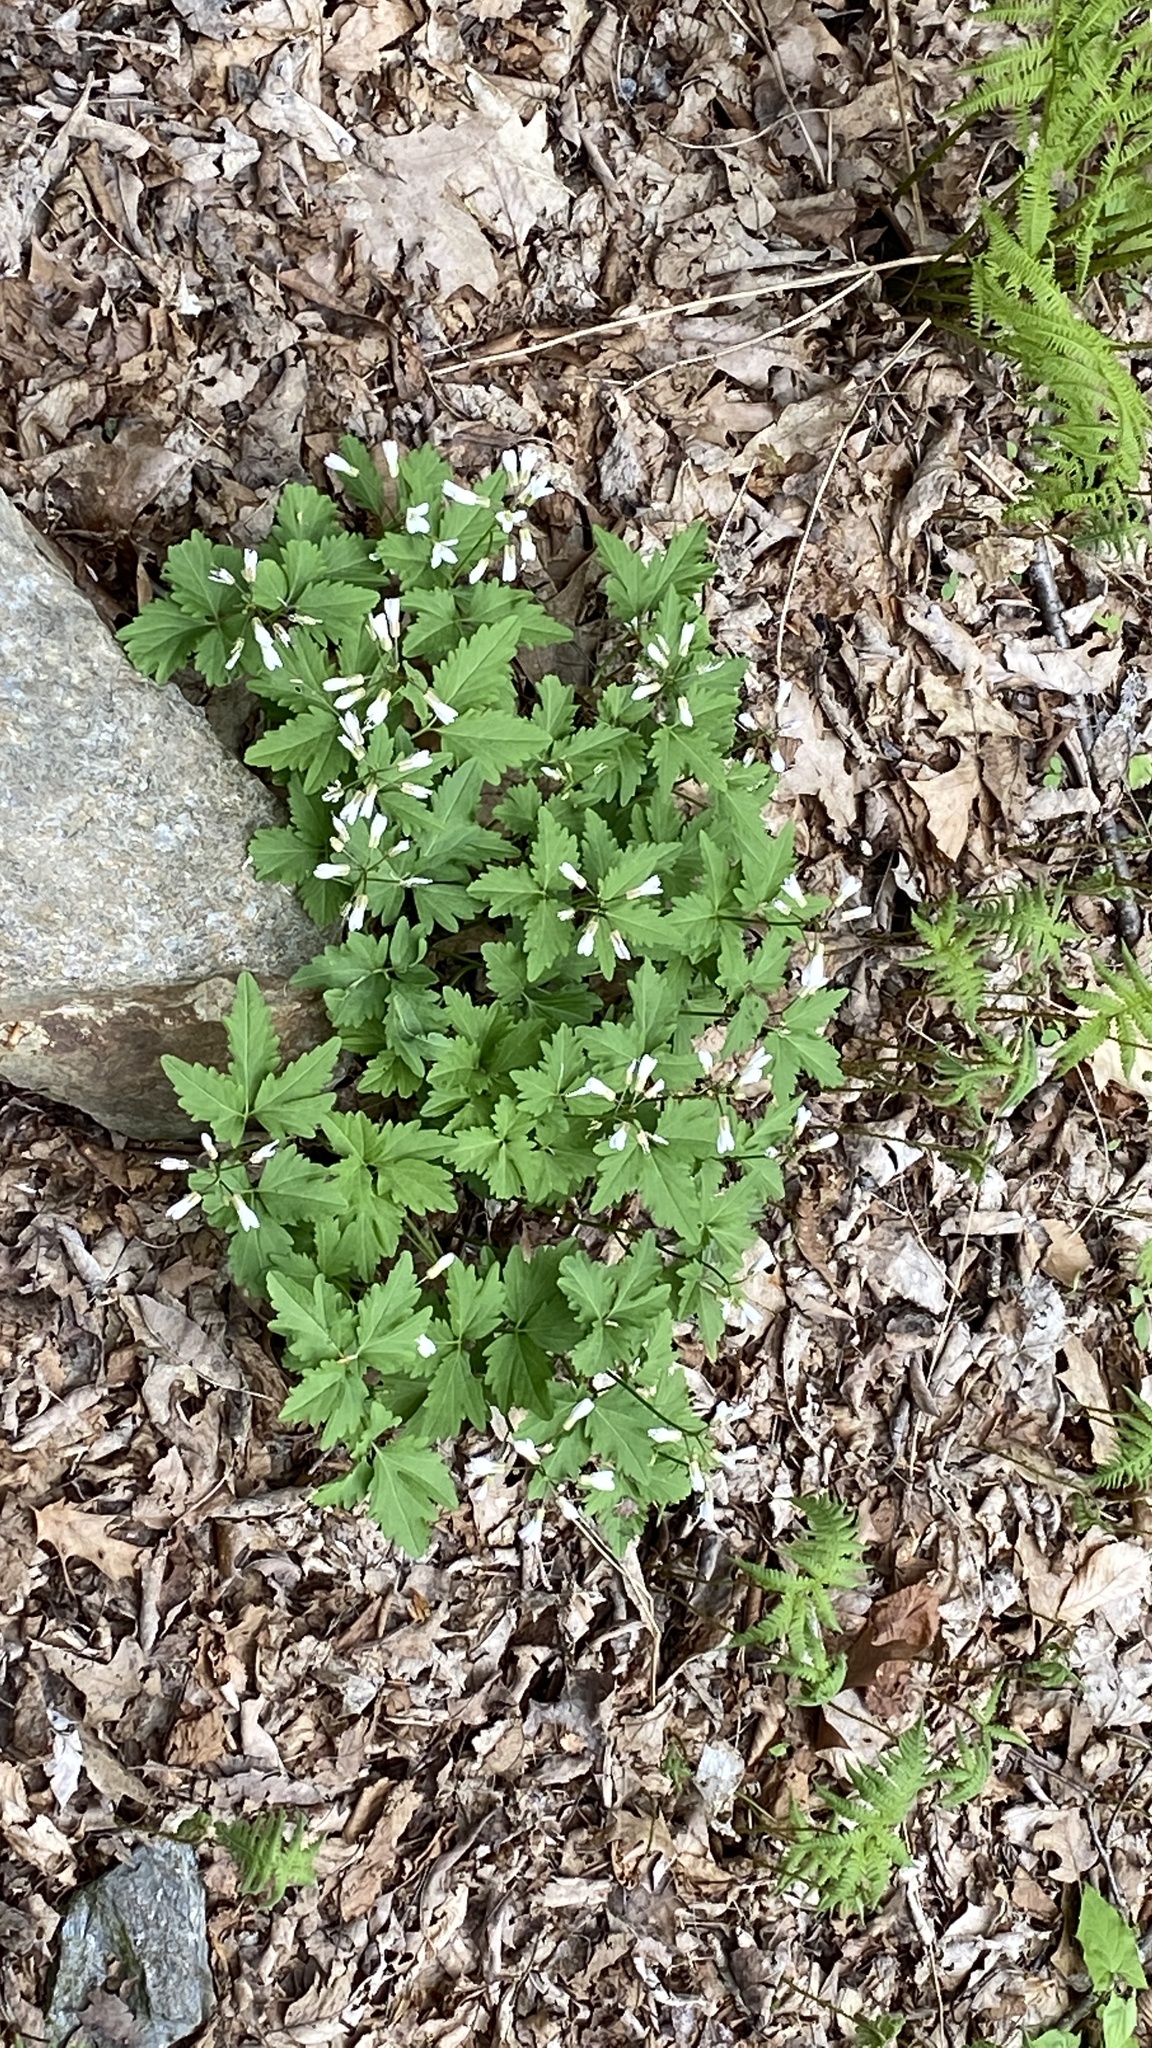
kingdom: Plantae
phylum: Tracheophyta
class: Magnoliopsida
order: Brassicales
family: Brassicaceae
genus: Cardamine
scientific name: Cardamine diphylla
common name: Broad-leaved toothwort
